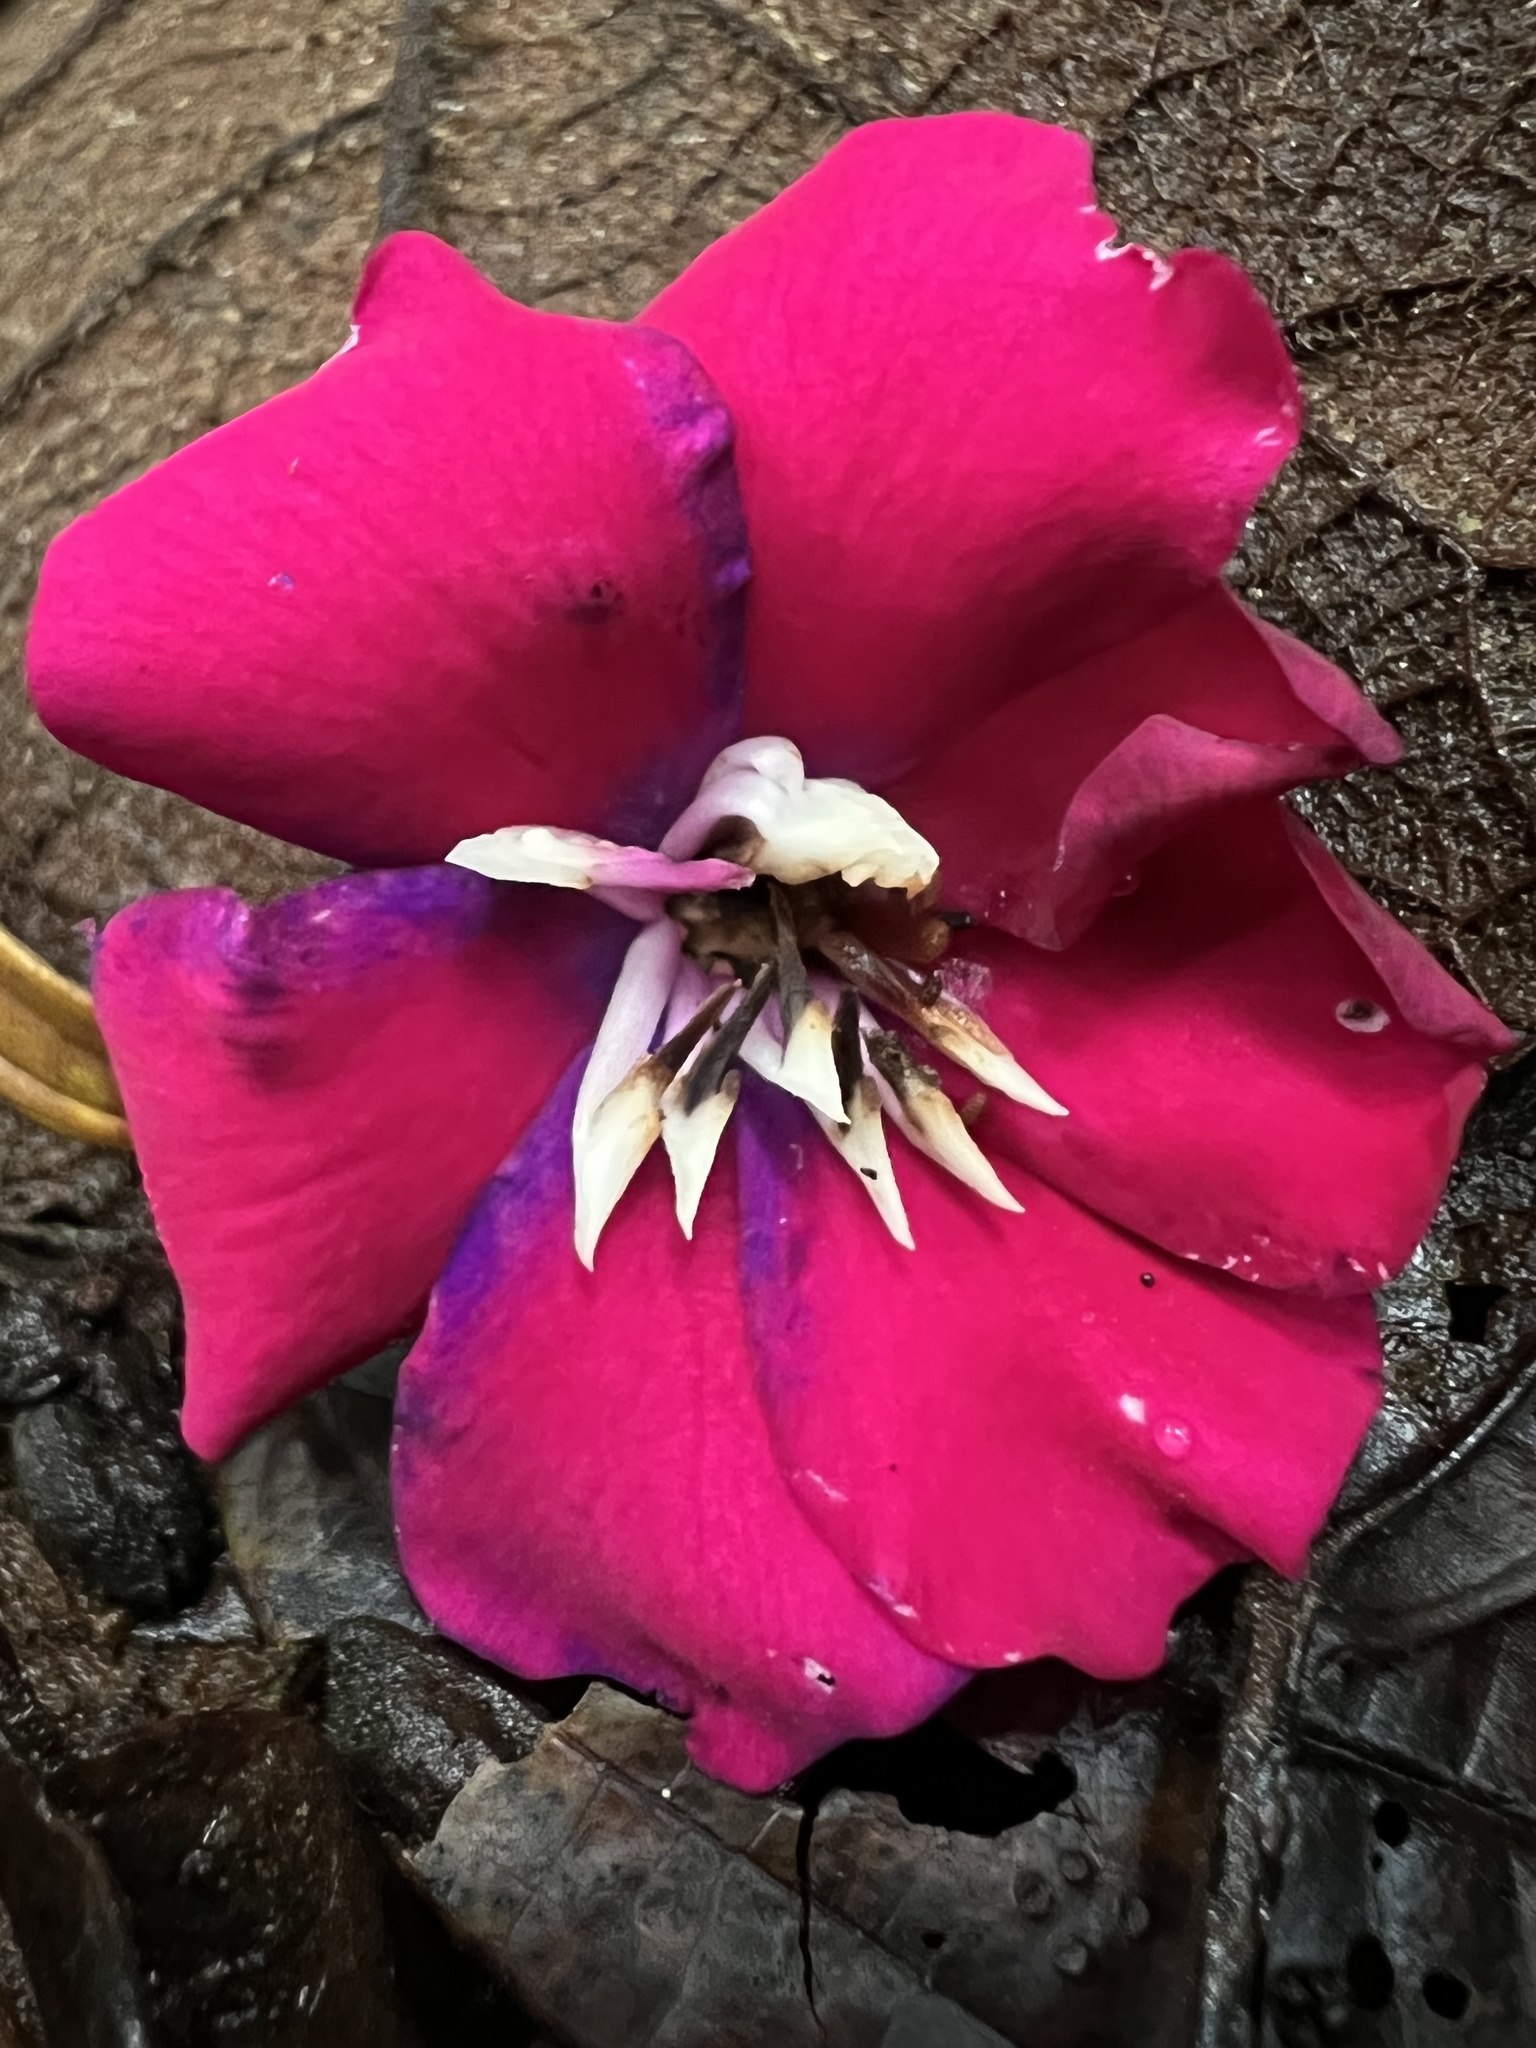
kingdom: Plantae
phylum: Tracheophyta
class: Magnoliopsida
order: Myrtales
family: Melastomataceae
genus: Meriania
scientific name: Meriania aguaditensis
